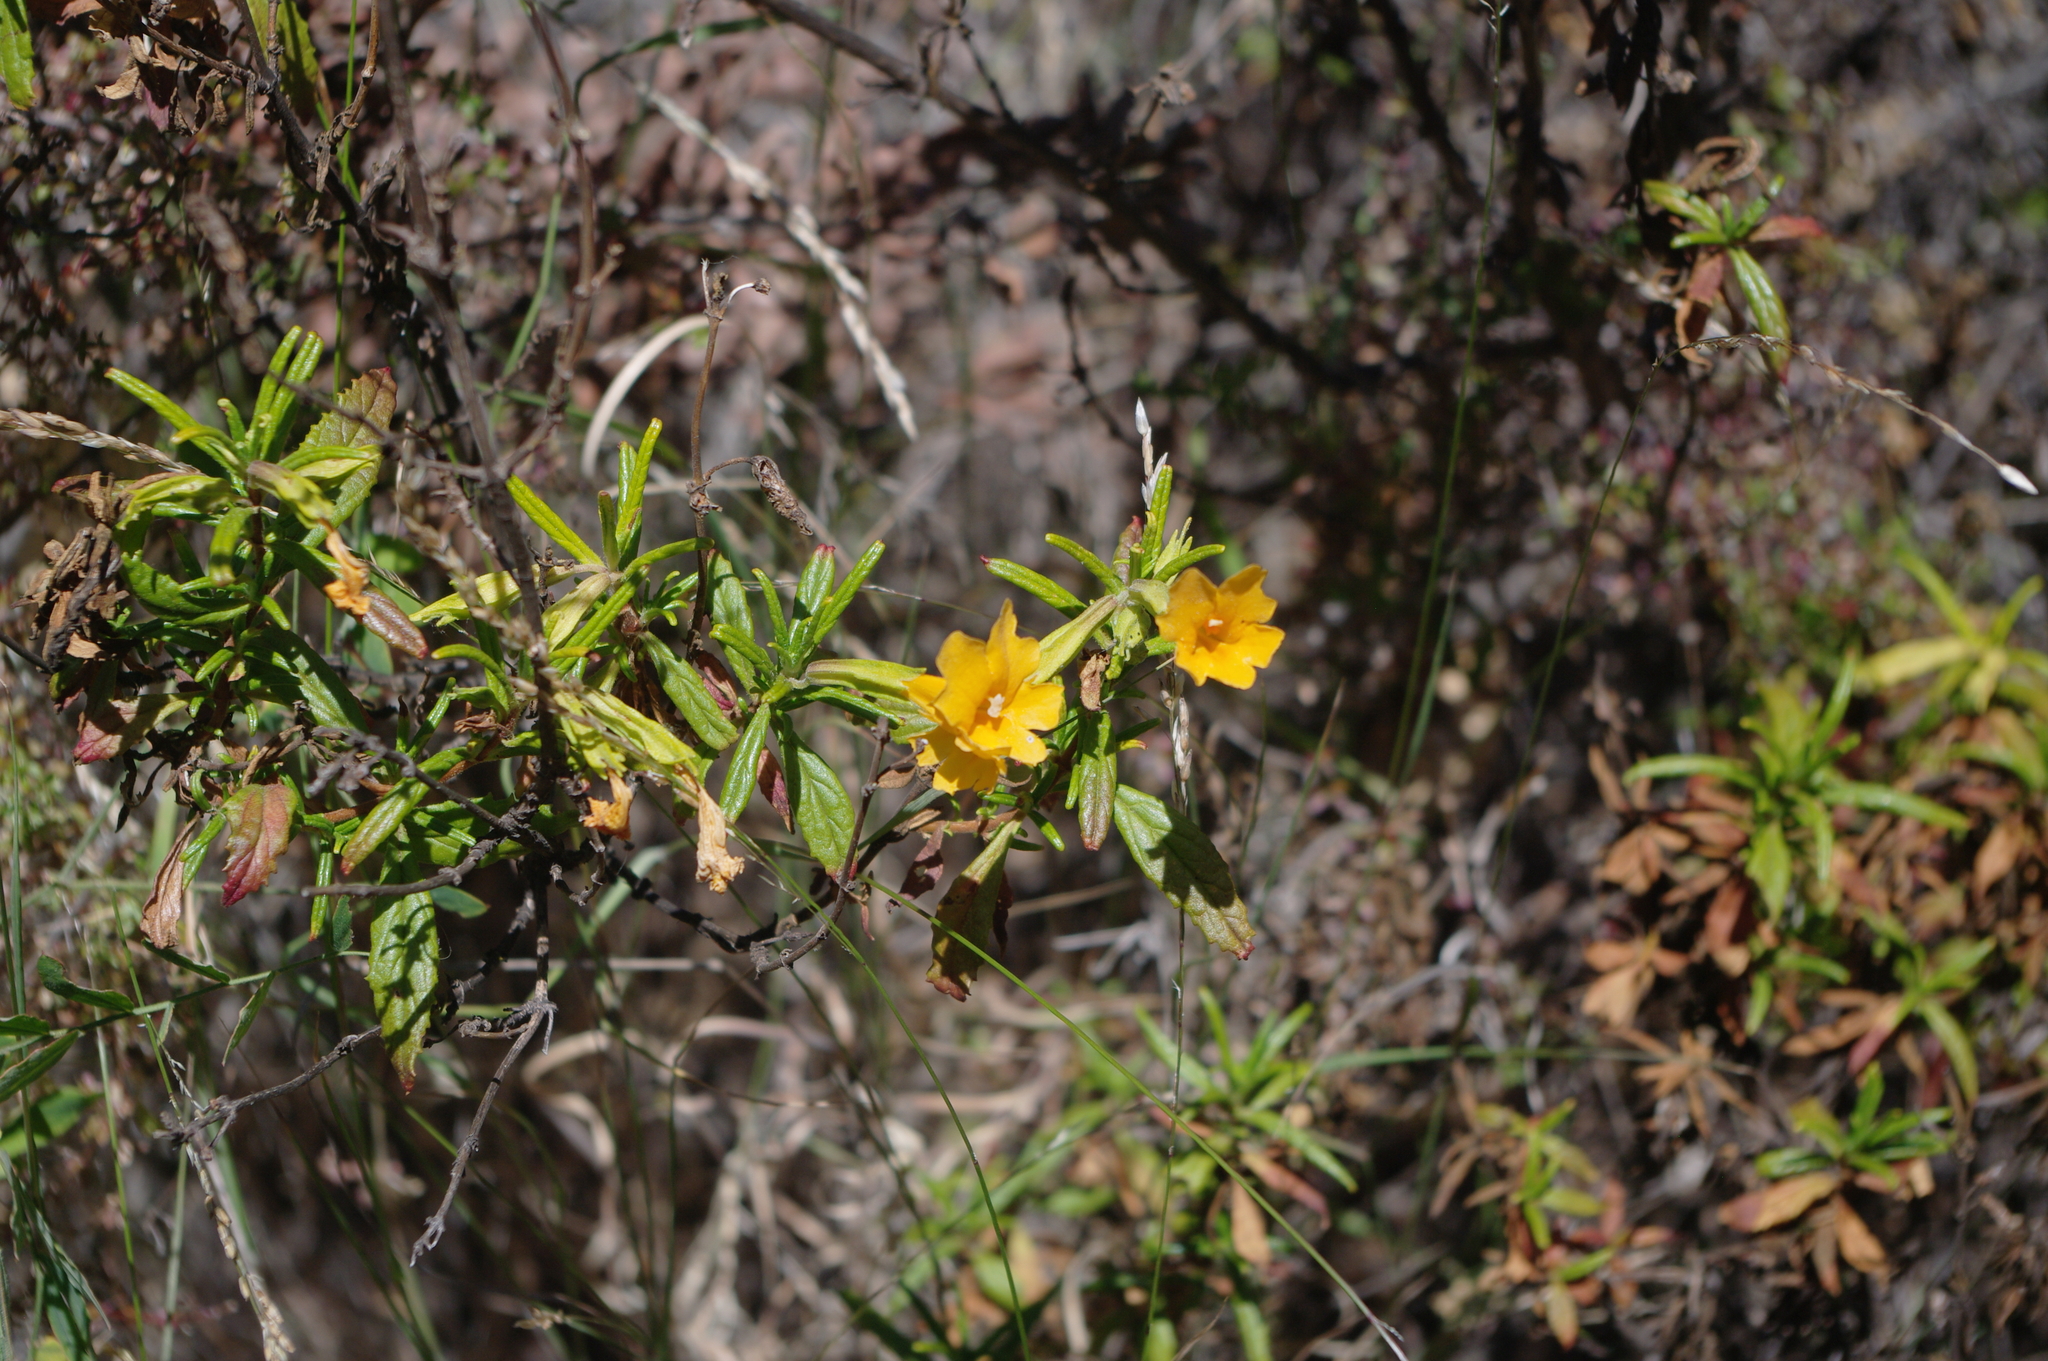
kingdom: Plantae
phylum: Tracheophyta
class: Magnoliopsida
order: Lamiales
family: Phrymaceae
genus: Diplacus
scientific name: Diplacus aurantiacus
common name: Bush monkey-flower
